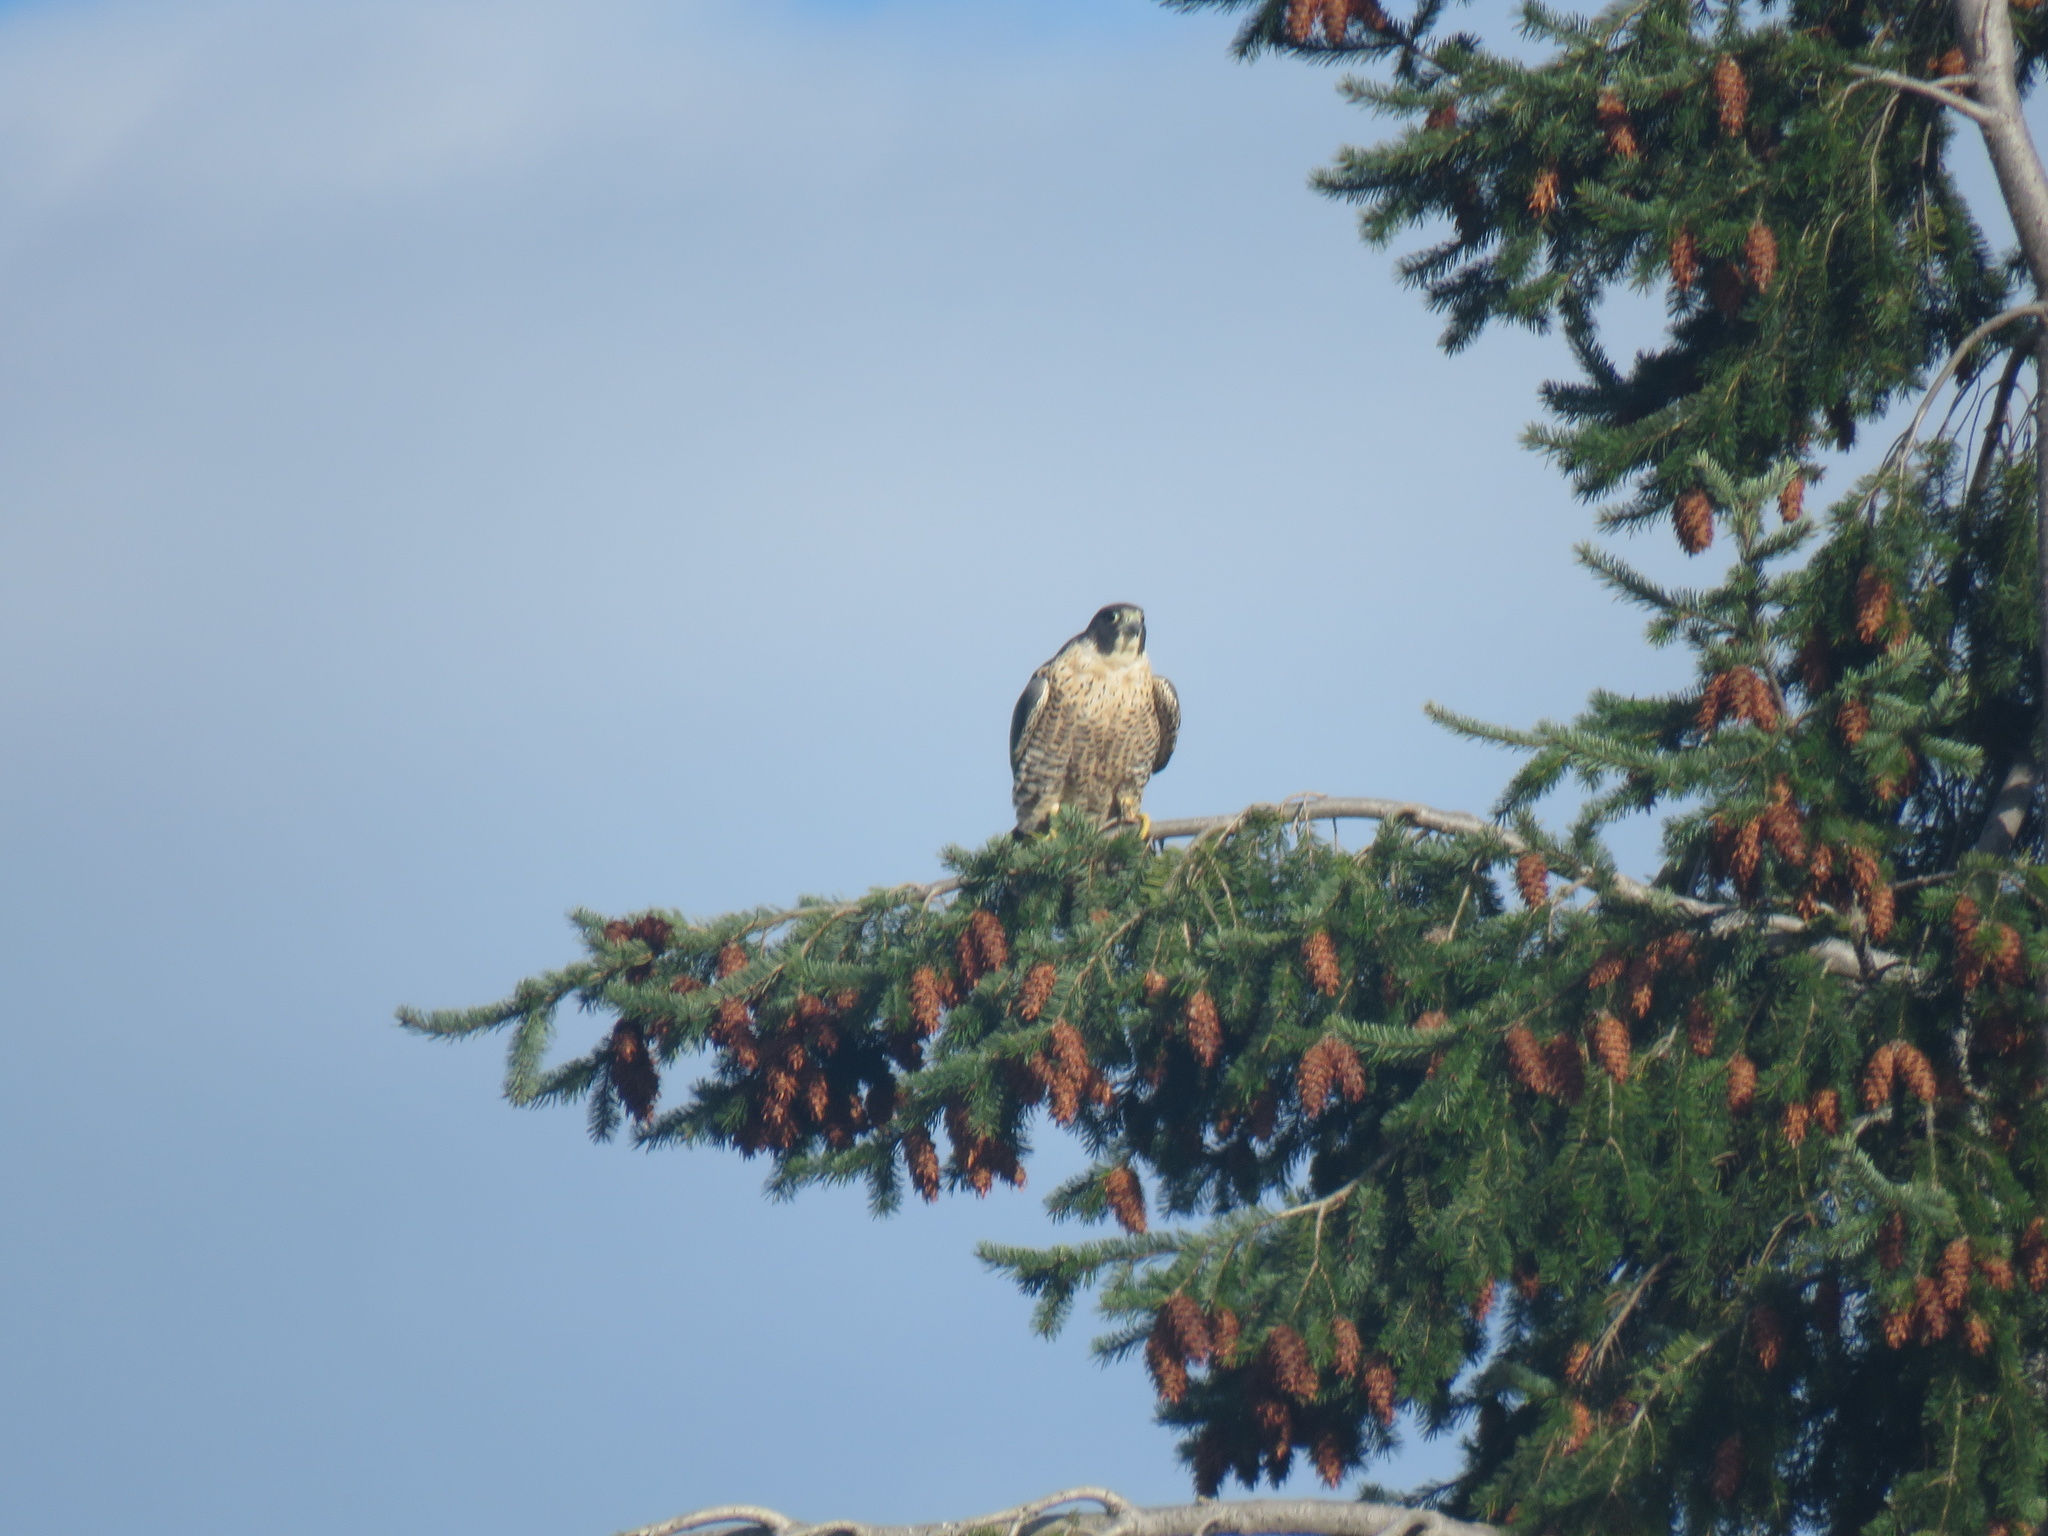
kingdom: Animalia
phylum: Chordata
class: Aves
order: Falconiformes
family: Falconidae
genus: Falco
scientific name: Falco peregrinus
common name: Peregrine falcon
